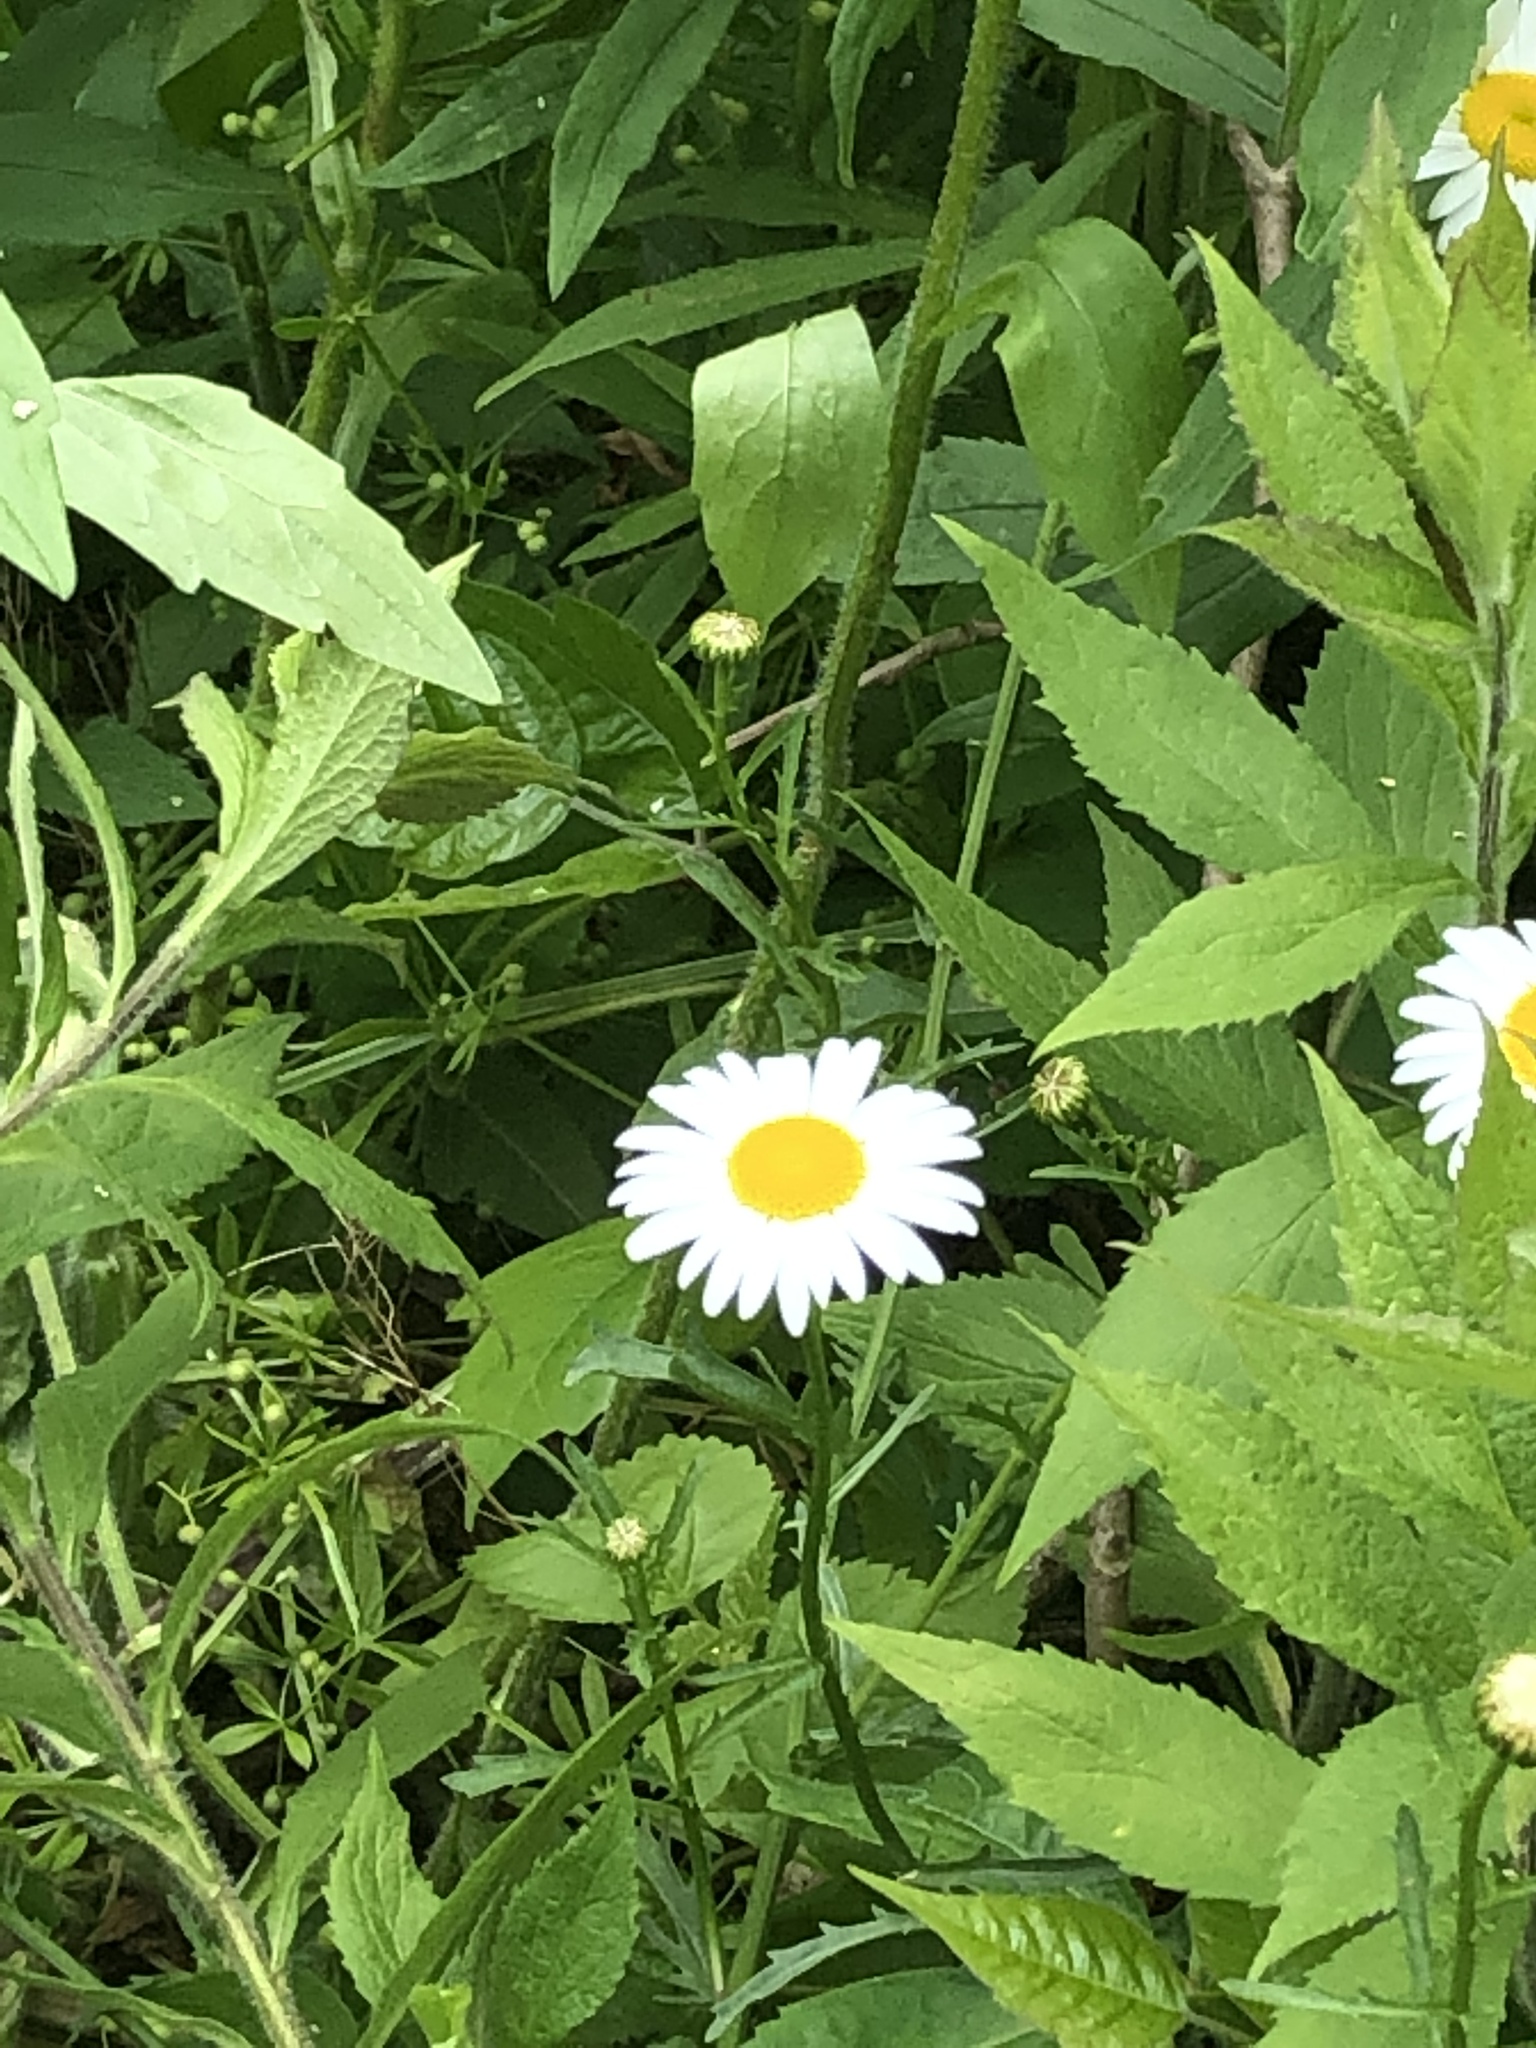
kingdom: Plantae
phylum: Tracheophyta
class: Magnoliopsida
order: Asterales
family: Asteraceae
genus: Leucanthemum
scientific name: Leucanthemum vulgare
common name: Oxeye daisy
